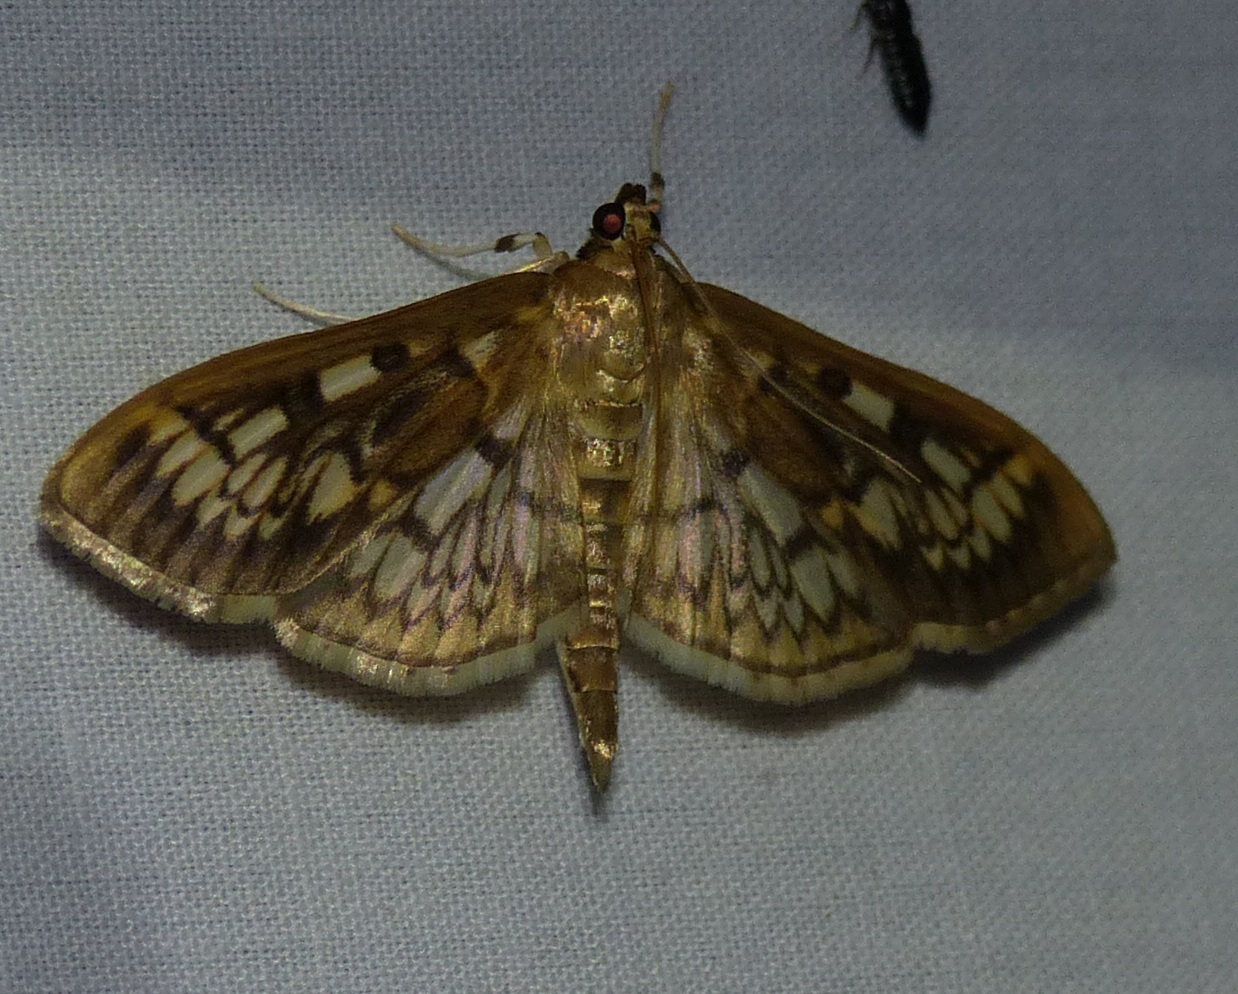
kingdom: Animalia
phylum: Arthropoda
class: Insecta
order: Lepidoptera
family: Crambidae
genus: Herpetogramma
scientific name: Herpetogramma thestealis
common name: Zigzag herpetogramma moth
